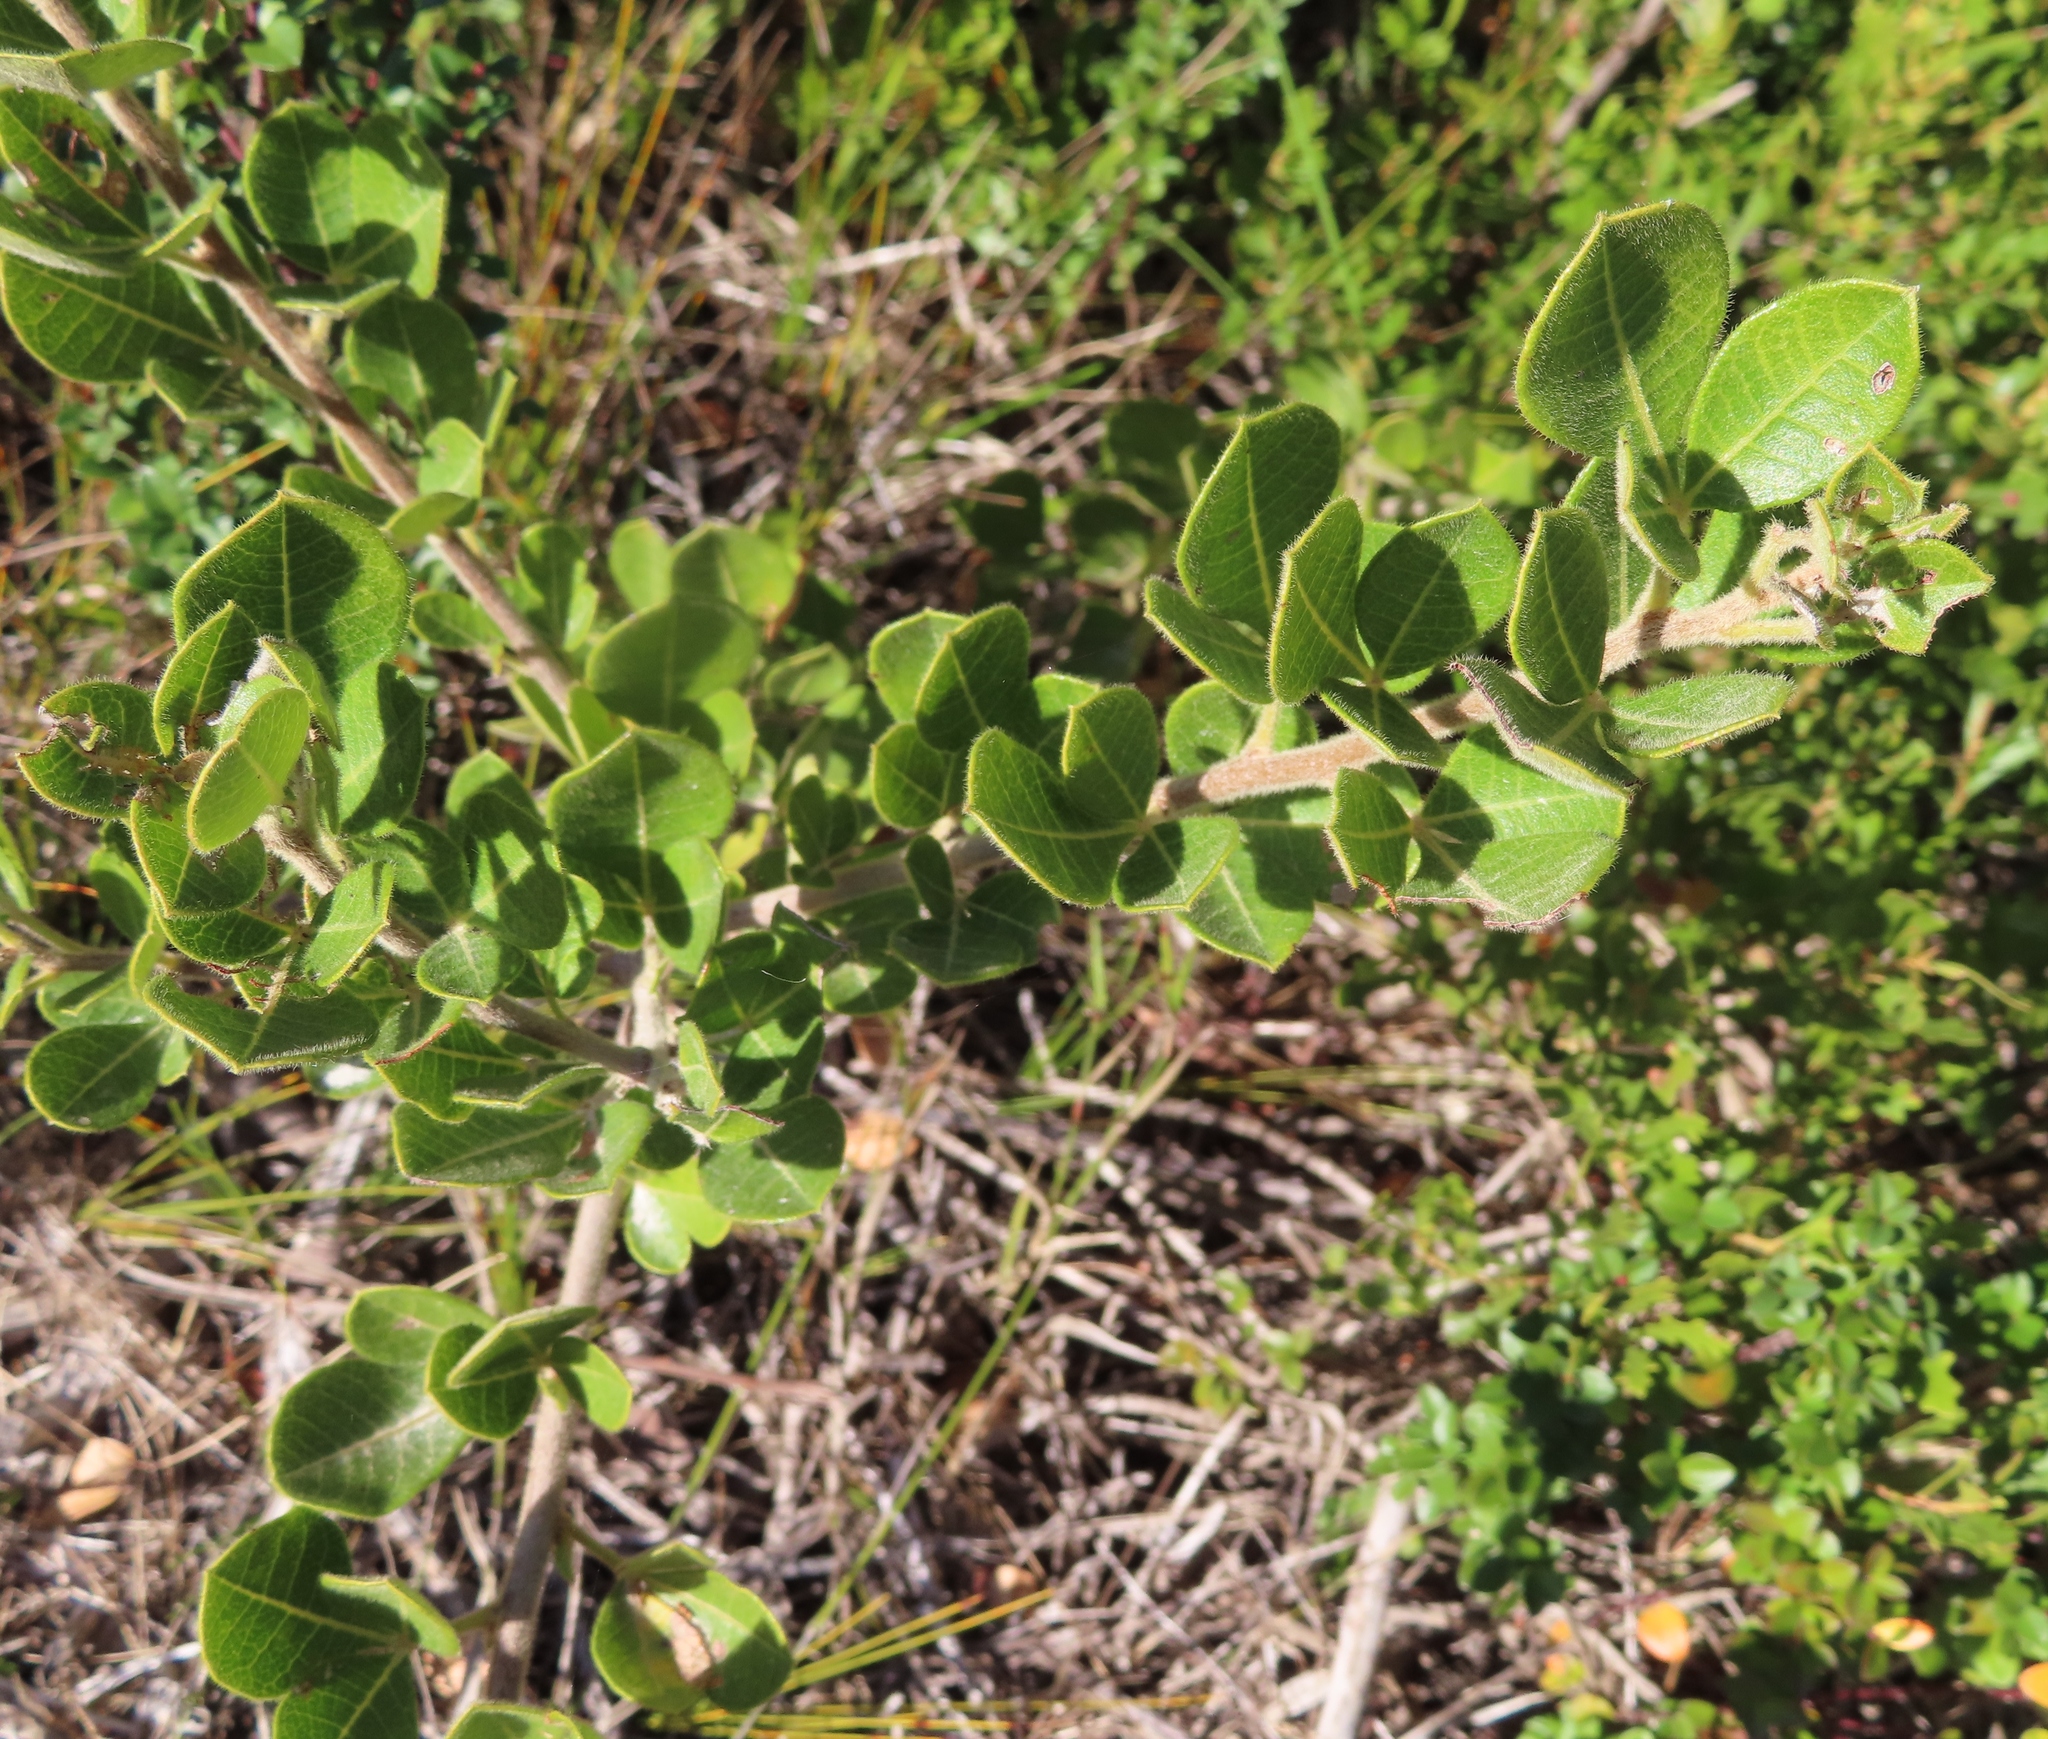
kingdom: Plantae
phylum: Tracheophyta
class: Magnoliopsida
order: Sapindales
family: Anacardiaceae
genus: Searsia
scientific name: Searsia laevigata
